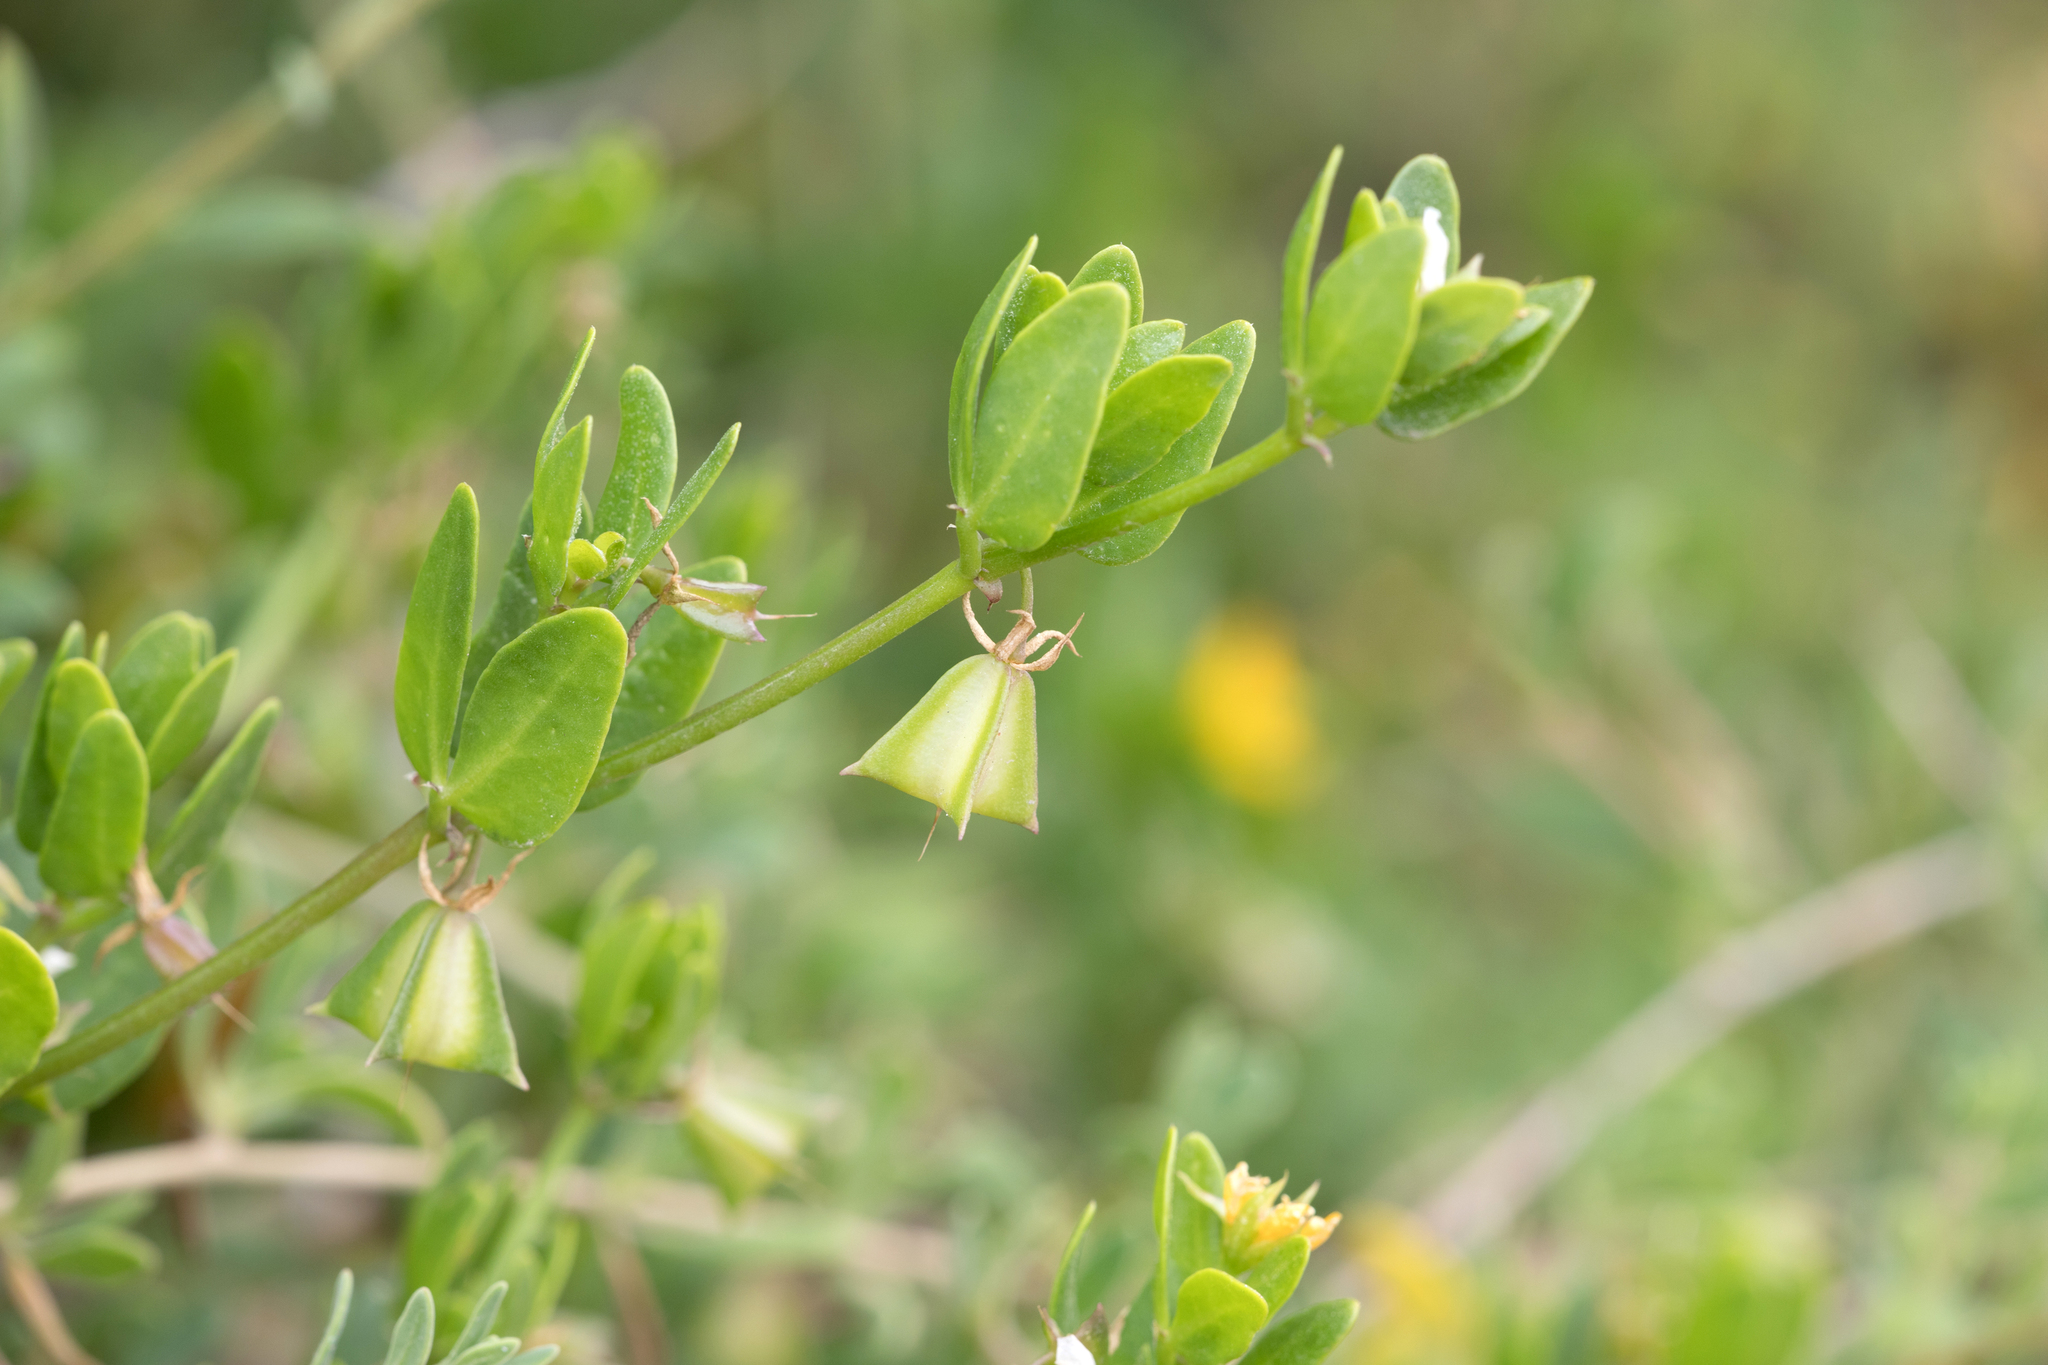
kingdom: Plantae
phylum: Tracheophyta
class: Magnoliopsida
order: Zygophyllales
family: Zygophyllaceae
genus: Roepera
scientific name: Roepera billardieri
